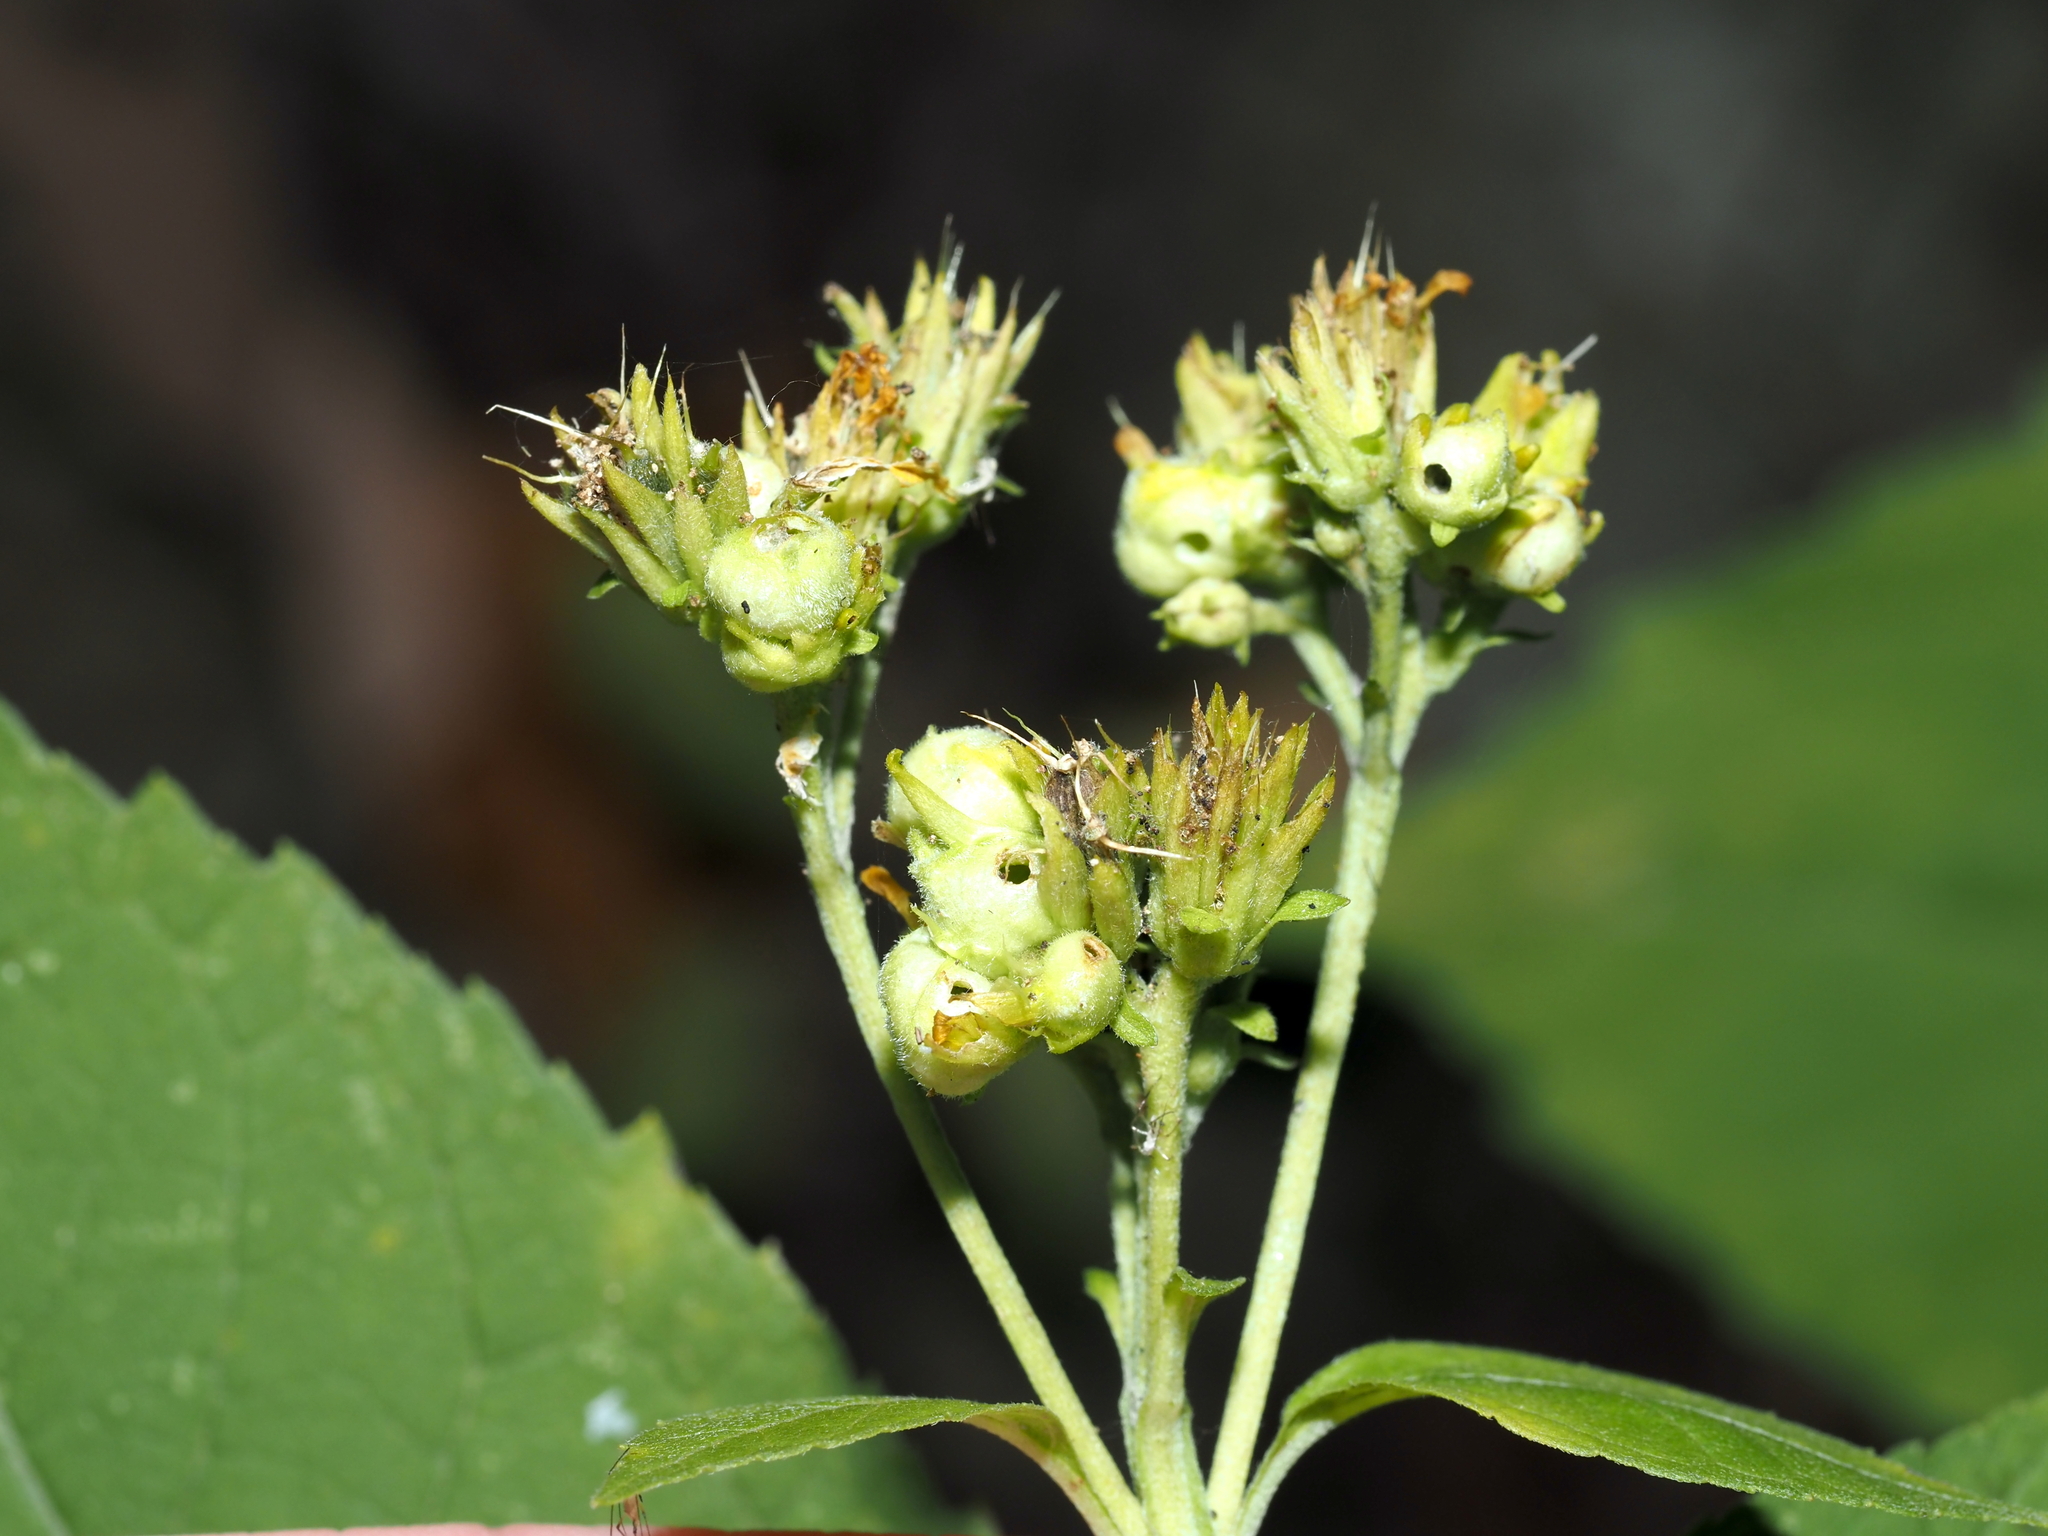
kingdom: Animalia
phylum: Arthropoda
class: Insecta
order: Diptera
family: Cecidomyiidae
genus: Schizomyia
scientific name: Schizomyia
